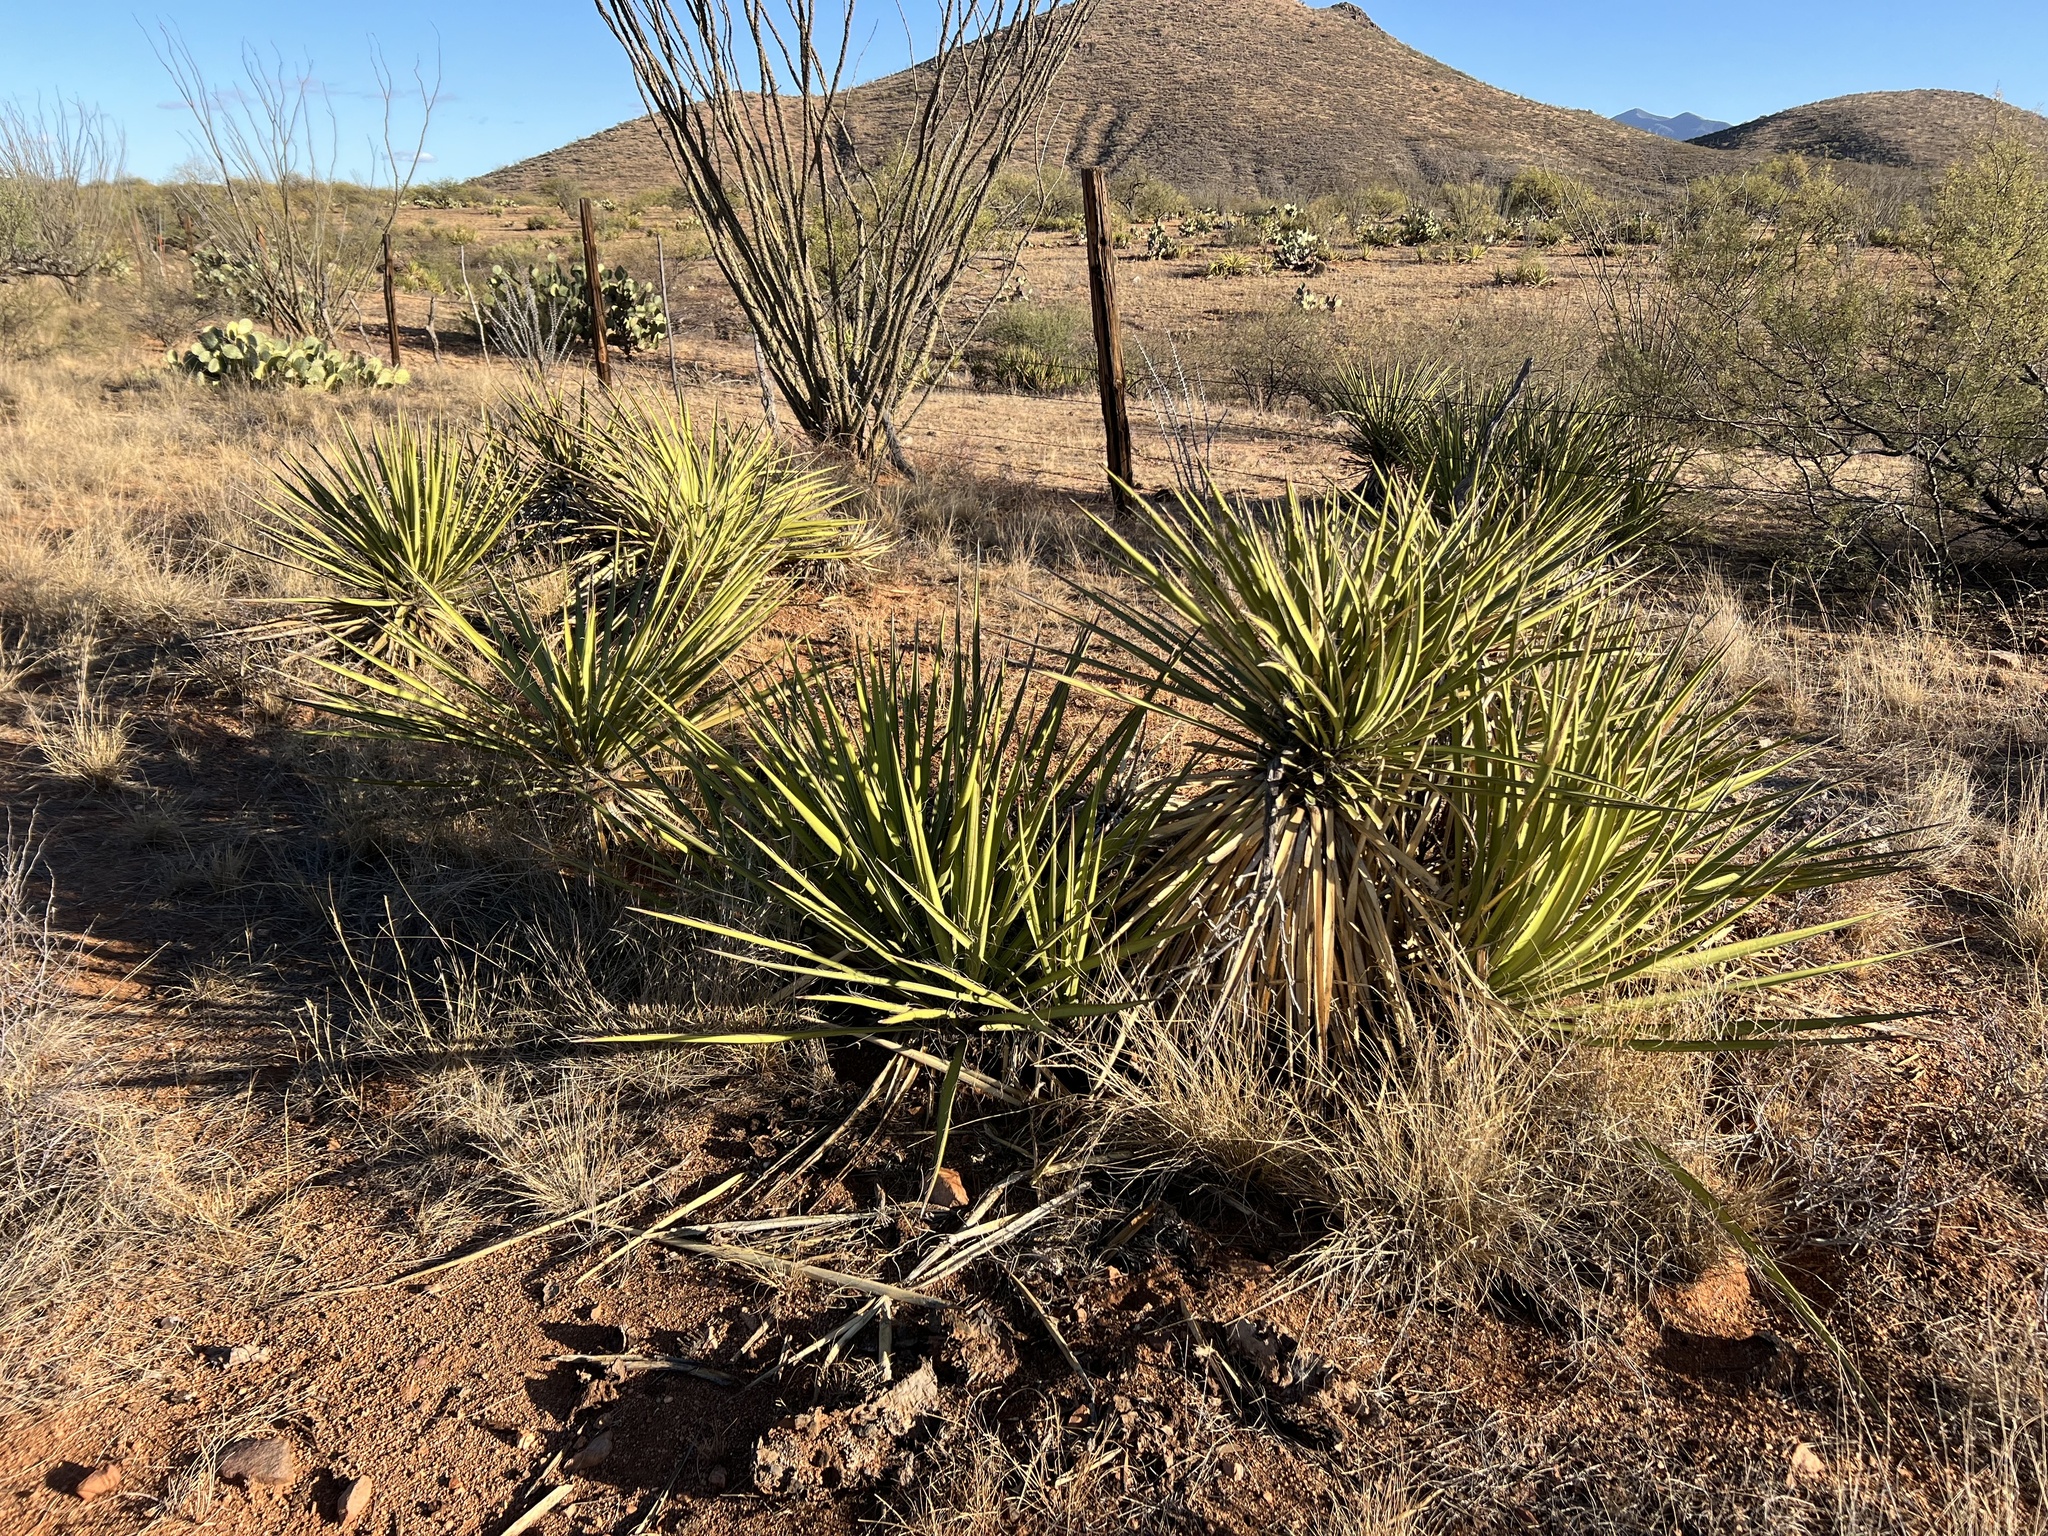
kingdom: Plantae
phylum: Tracheophyta
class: Liliopsida
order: Asparagales
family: Asparagaceae
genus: Yucca
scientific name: Yucca baccata
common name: Banana yucca
